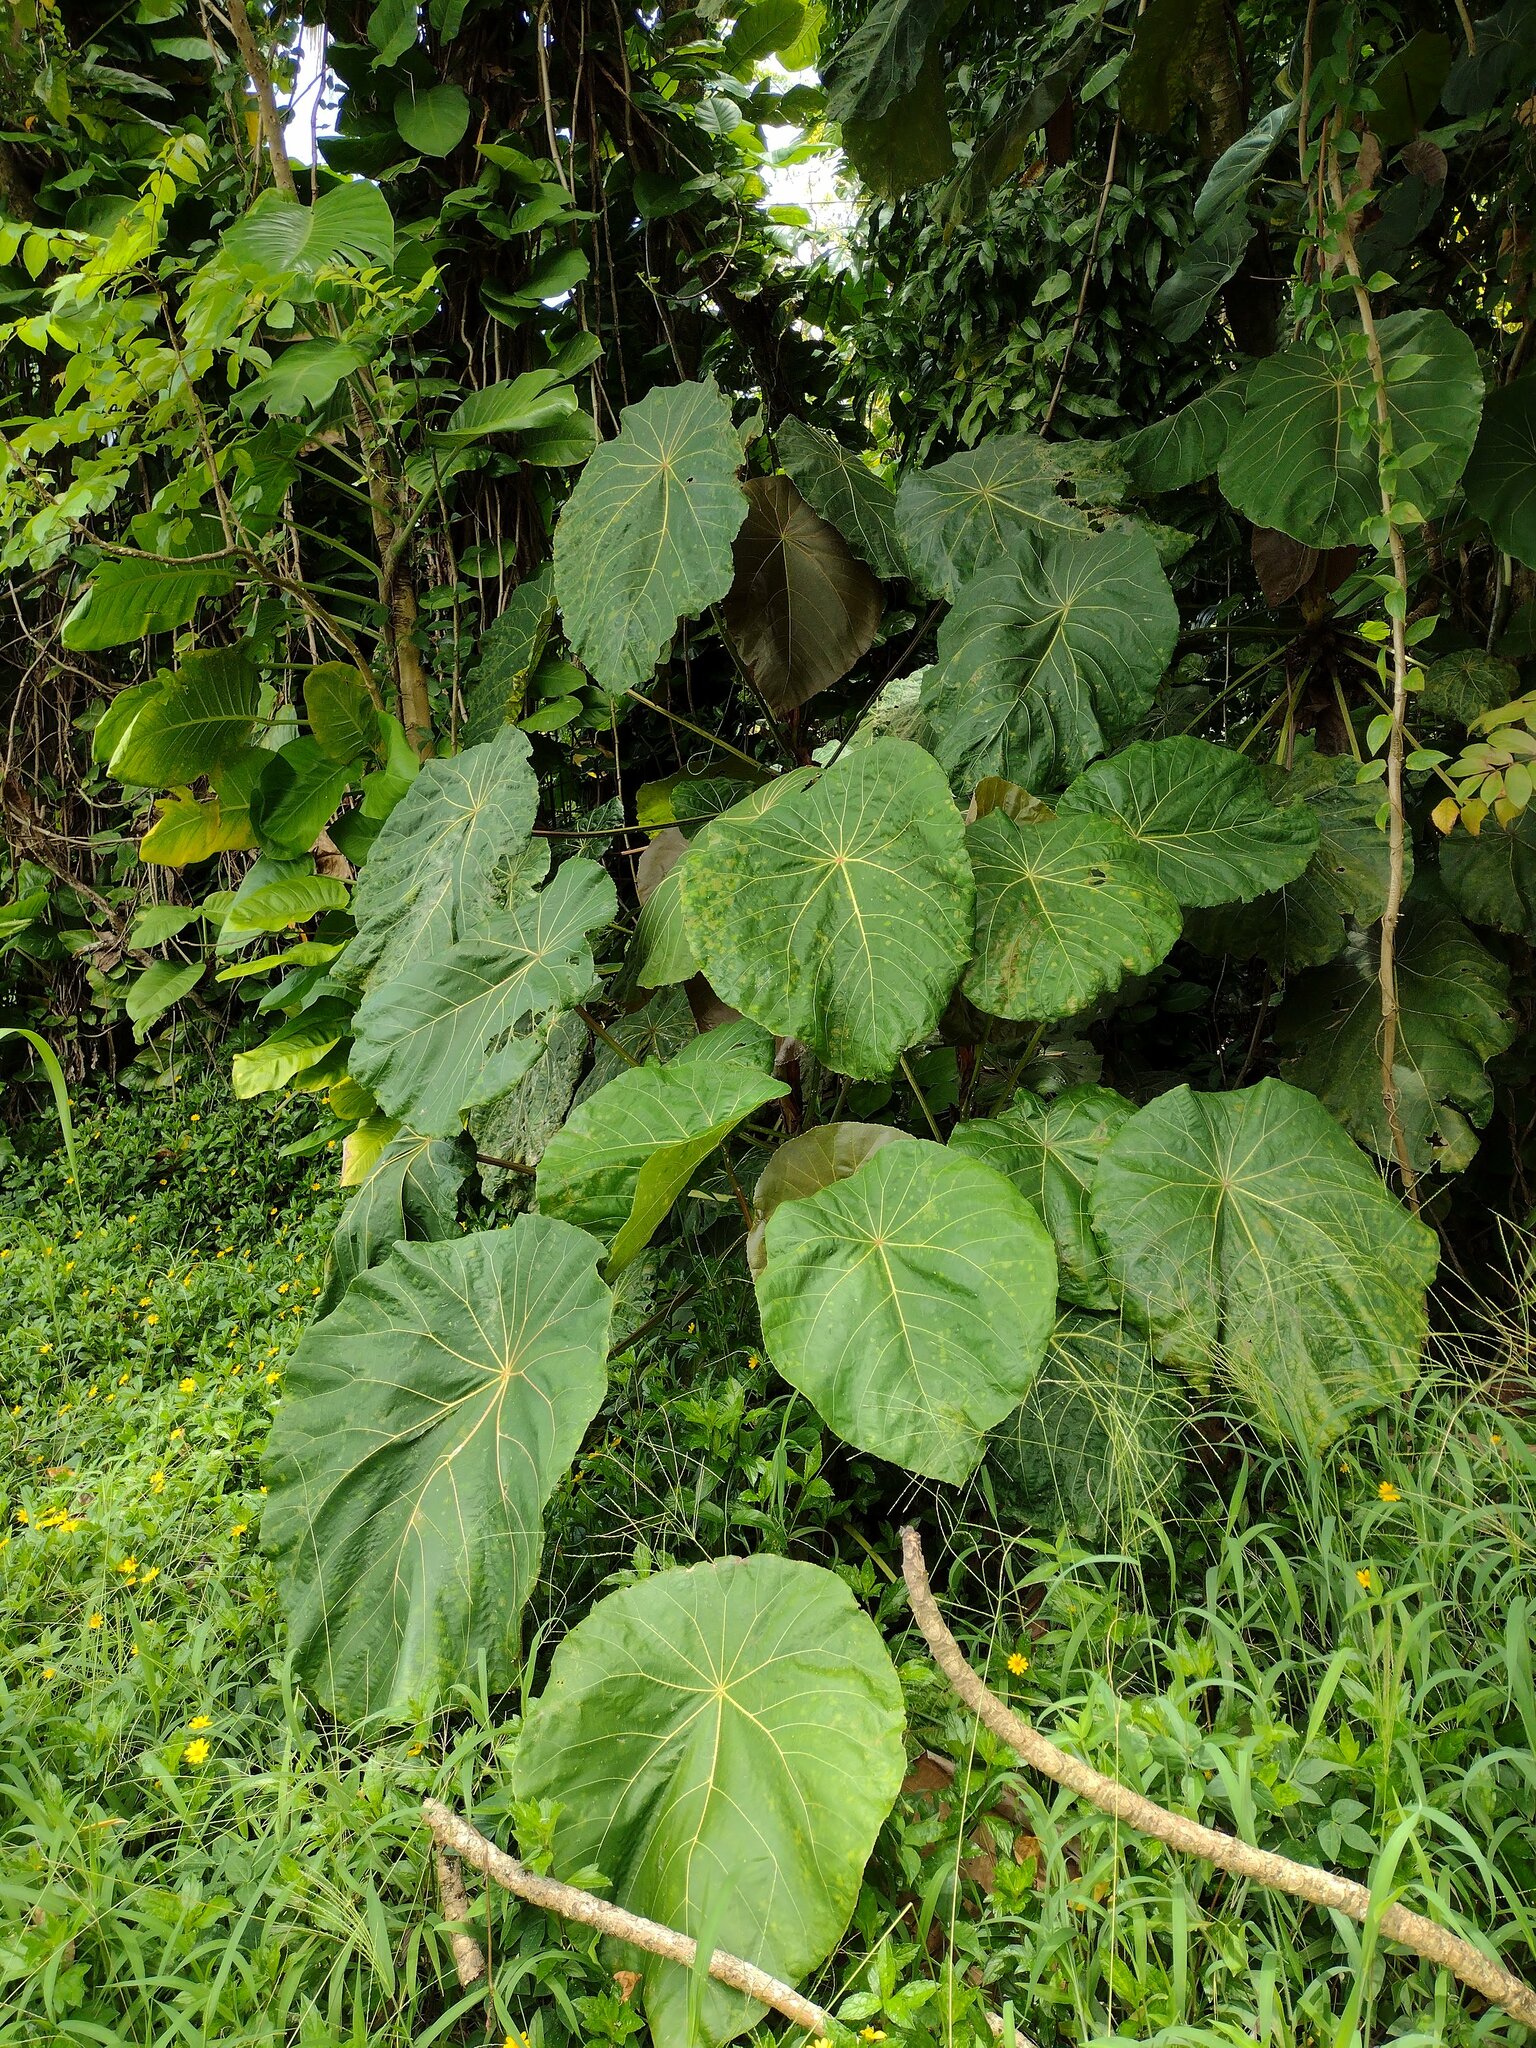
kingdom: Plantae
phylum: Tracheophyta
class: Magnoliopsida
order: Malpighiales
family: Euphorbiaceae
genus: Macaranga
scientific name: Macaranga mappa
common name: Pengua
